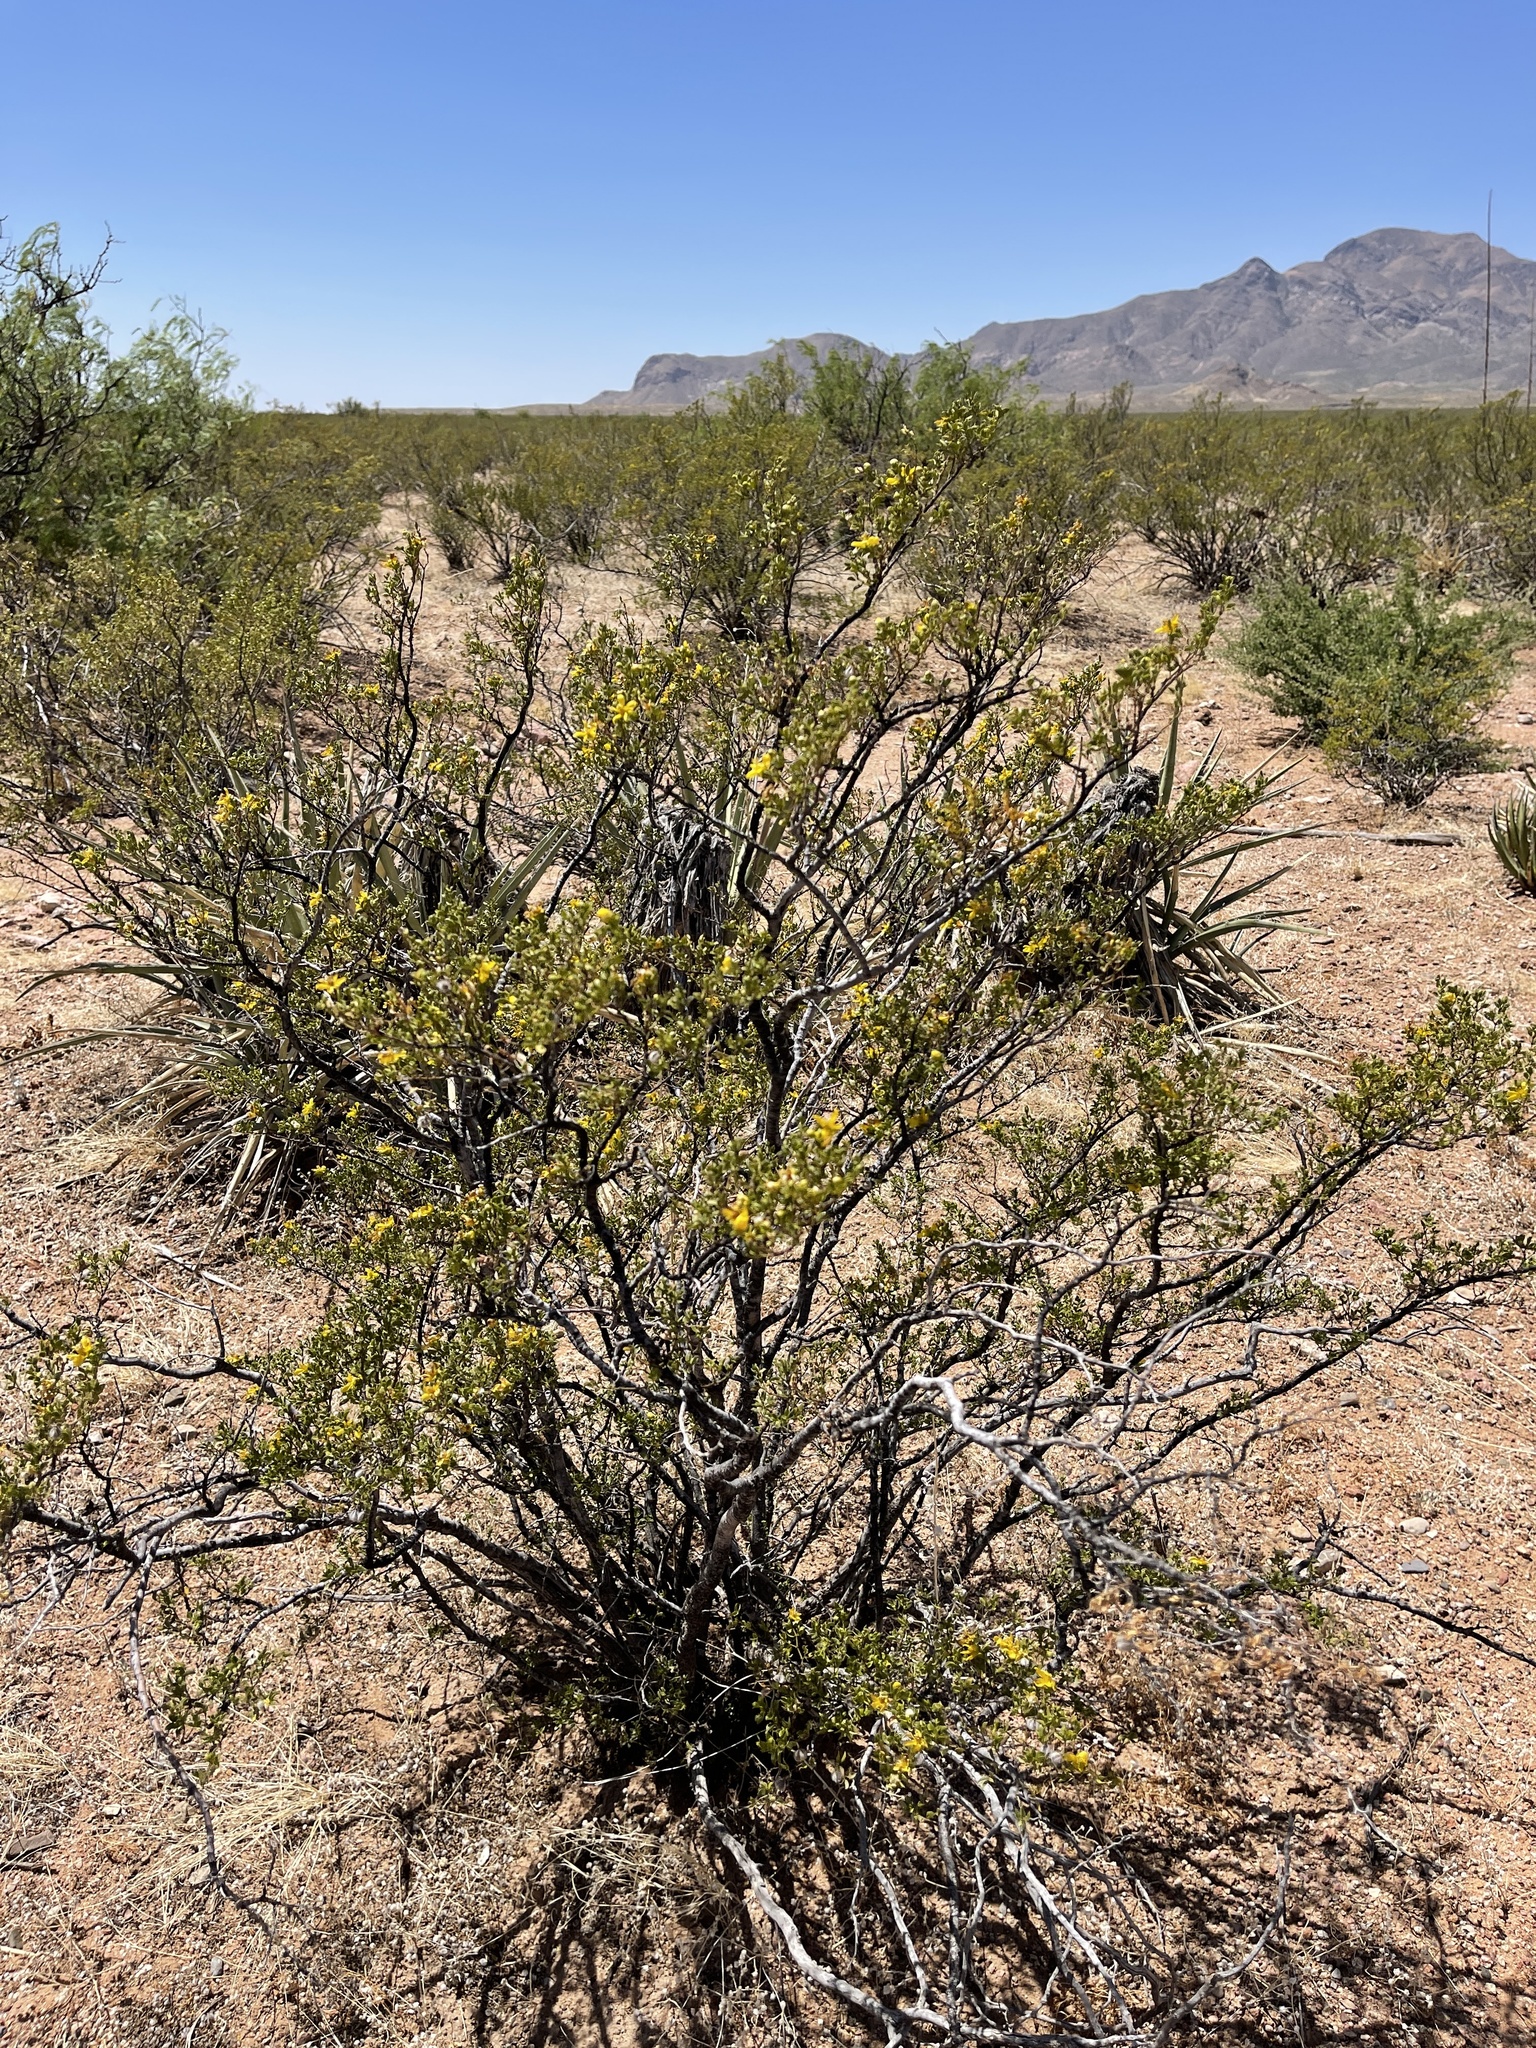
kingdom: Plantae
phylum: Tracheophyta
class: Magnoliopsida
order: Zygophyllales
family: Zygophyllaceae
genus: Larrea
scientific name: Larrea tridentata
